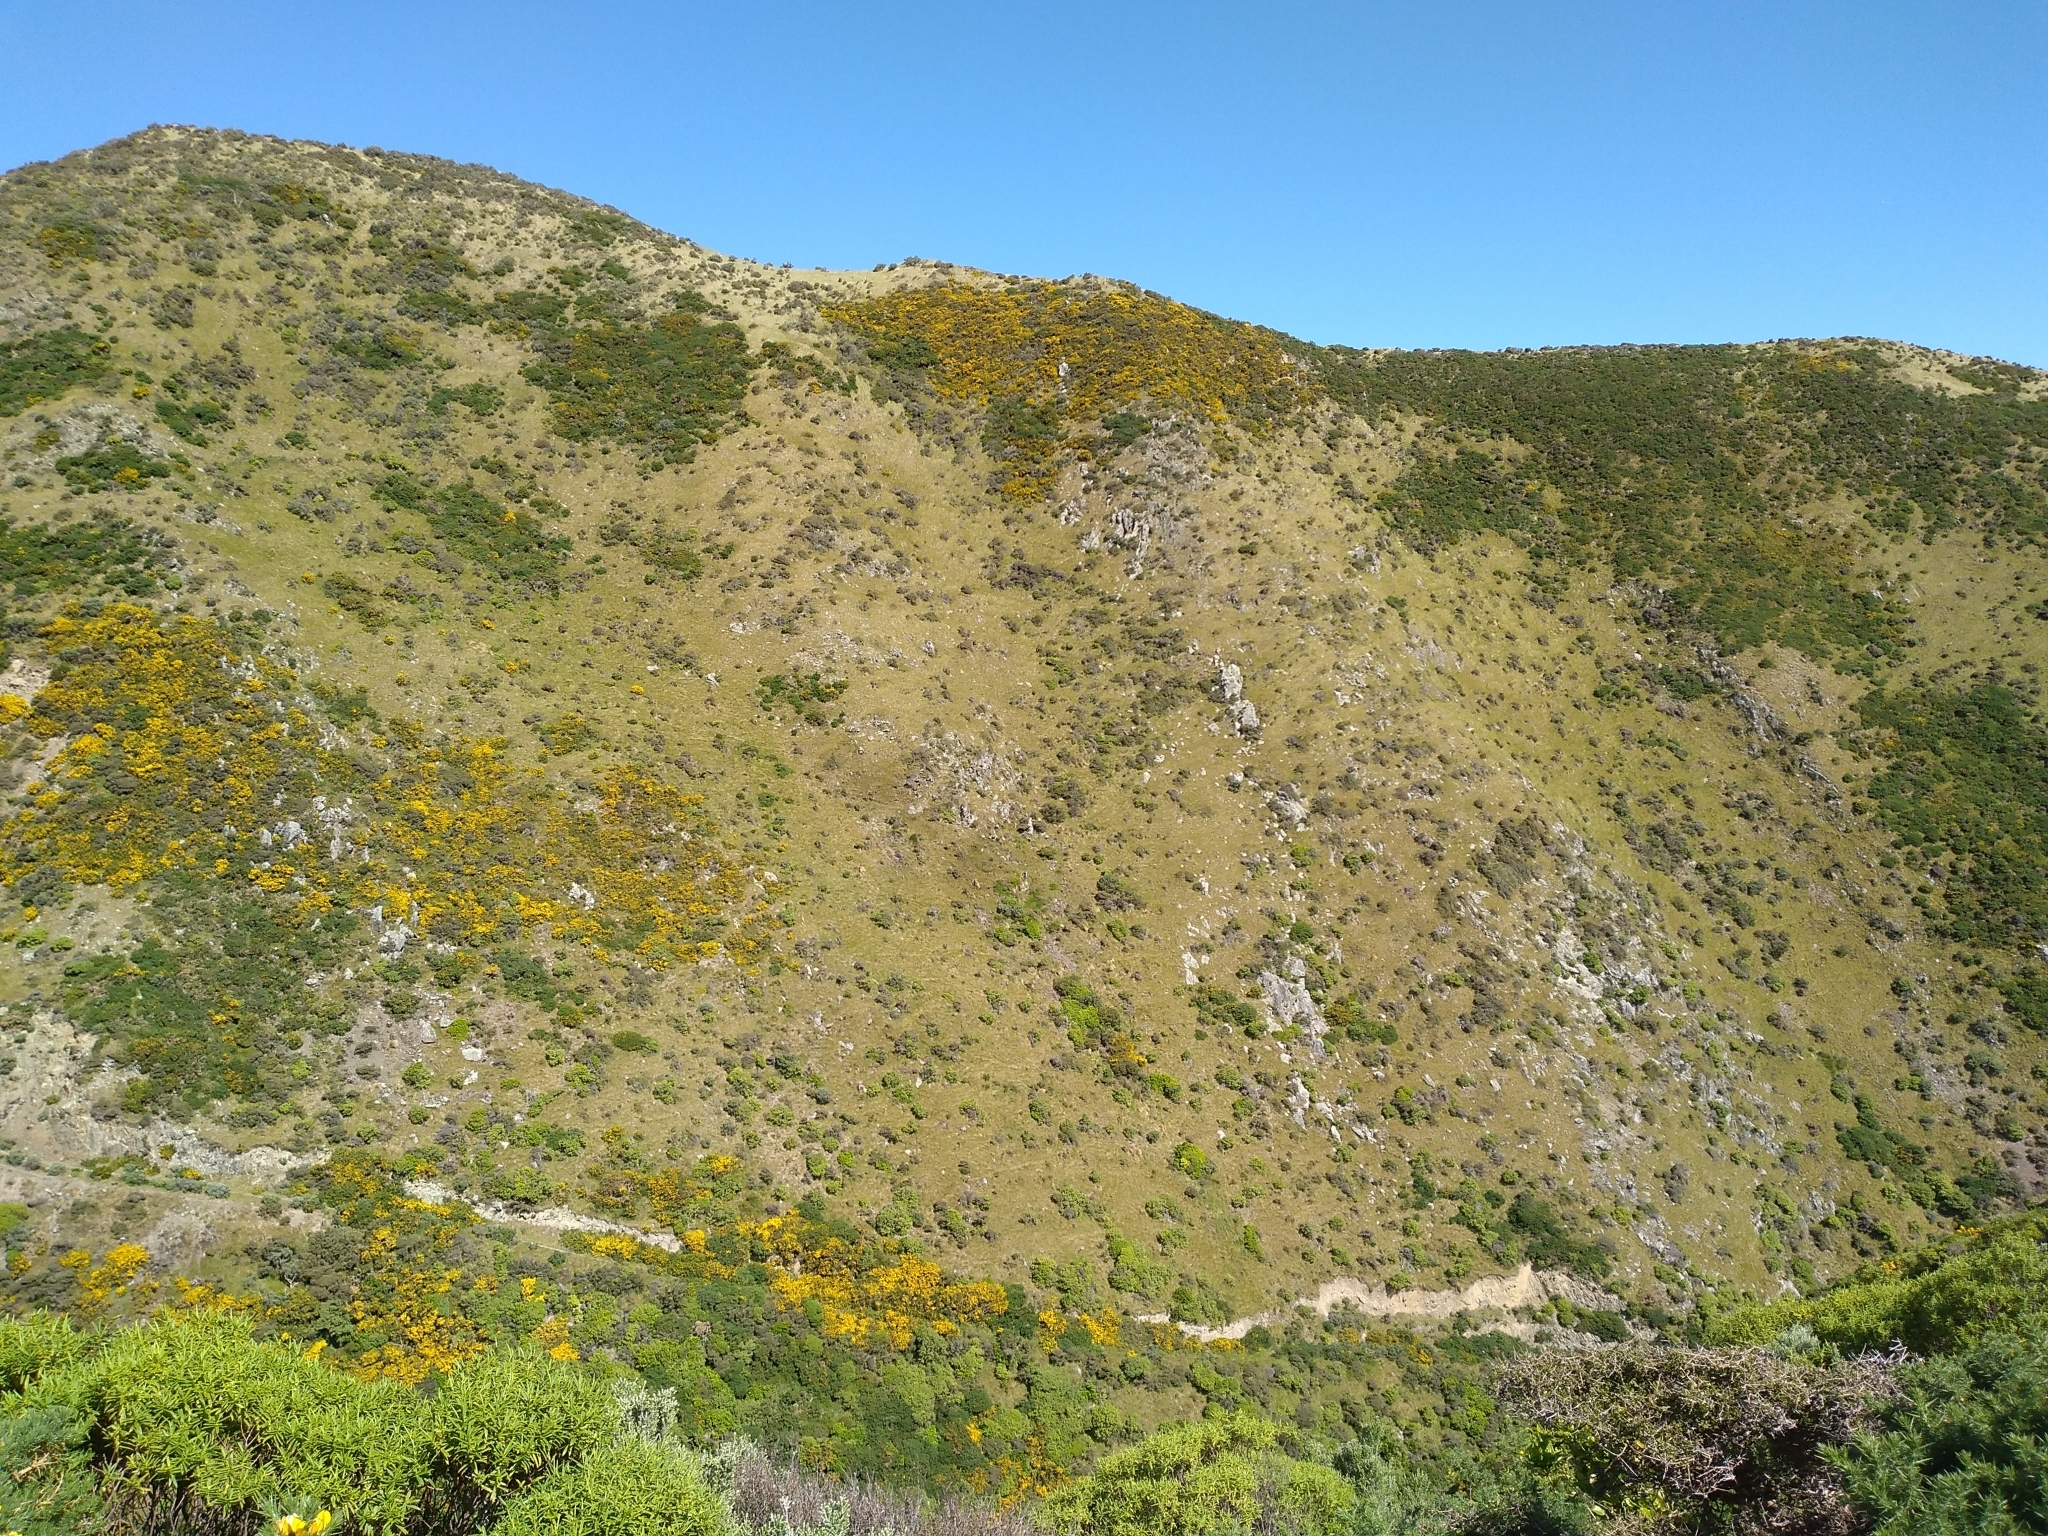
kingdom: Plantae
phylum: Tracheophyta
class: Magnoliopsida
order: Asterales
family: Asteraceae
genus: Senecio
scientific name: Senecio glastifolius
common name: Woad-leaved ragwort
